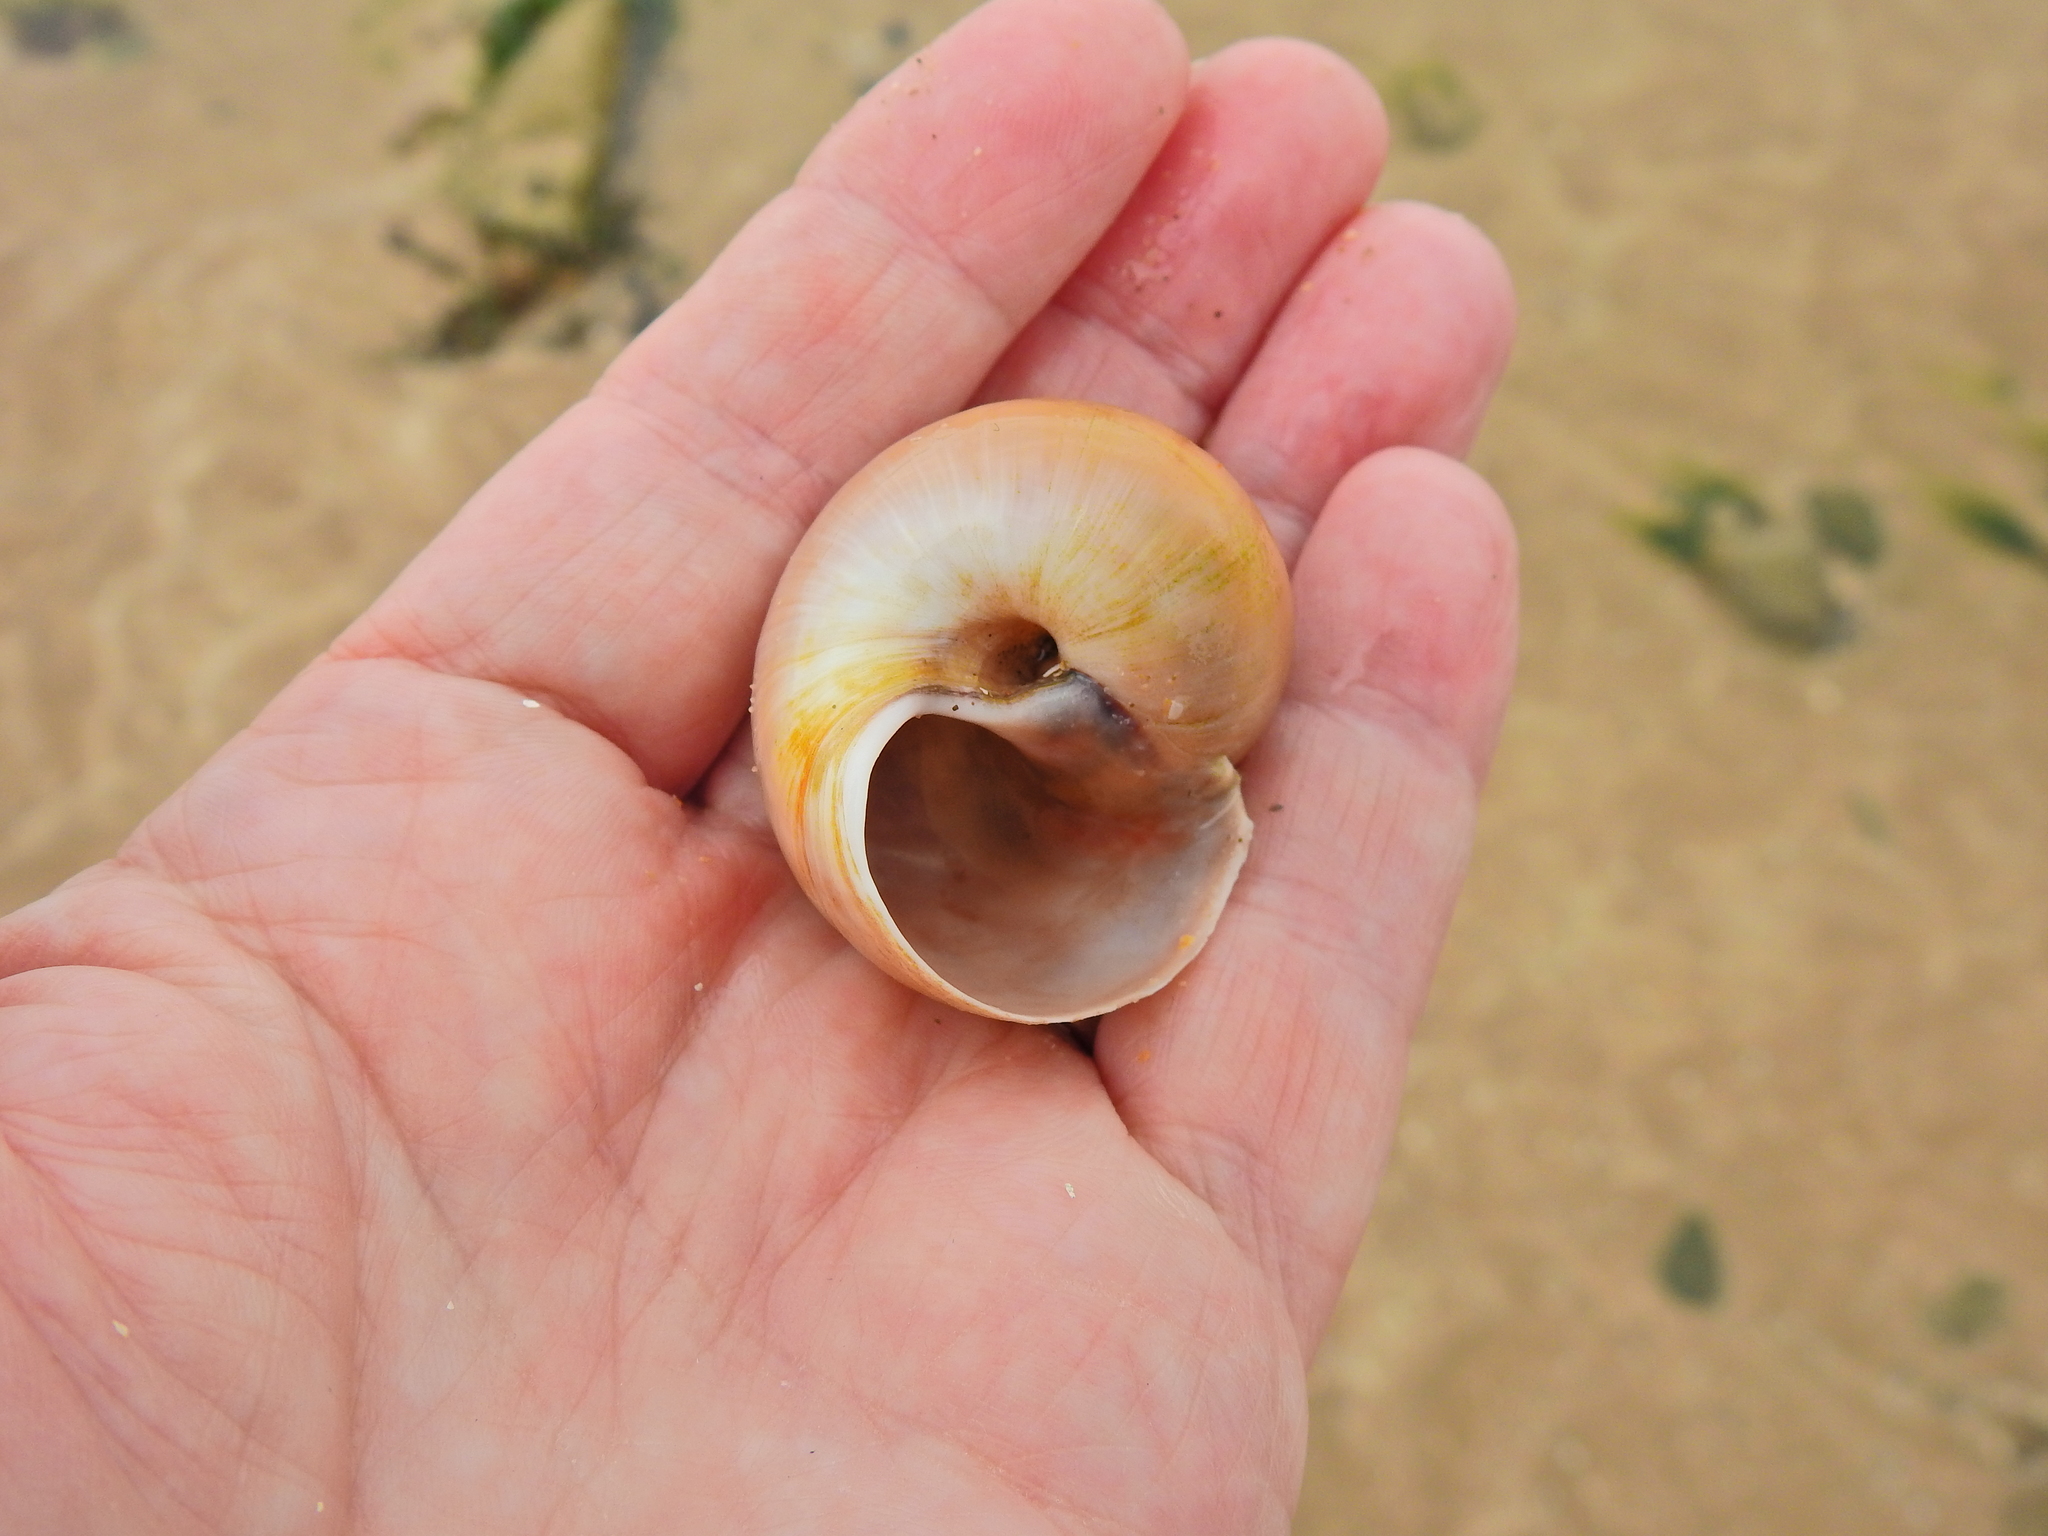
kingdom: Animalia
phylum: Mollusca
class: Gastropoda
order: Littorinimorpha
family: Naticidae
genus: Euspira
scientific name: Euspira catena
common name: Necklace shell
